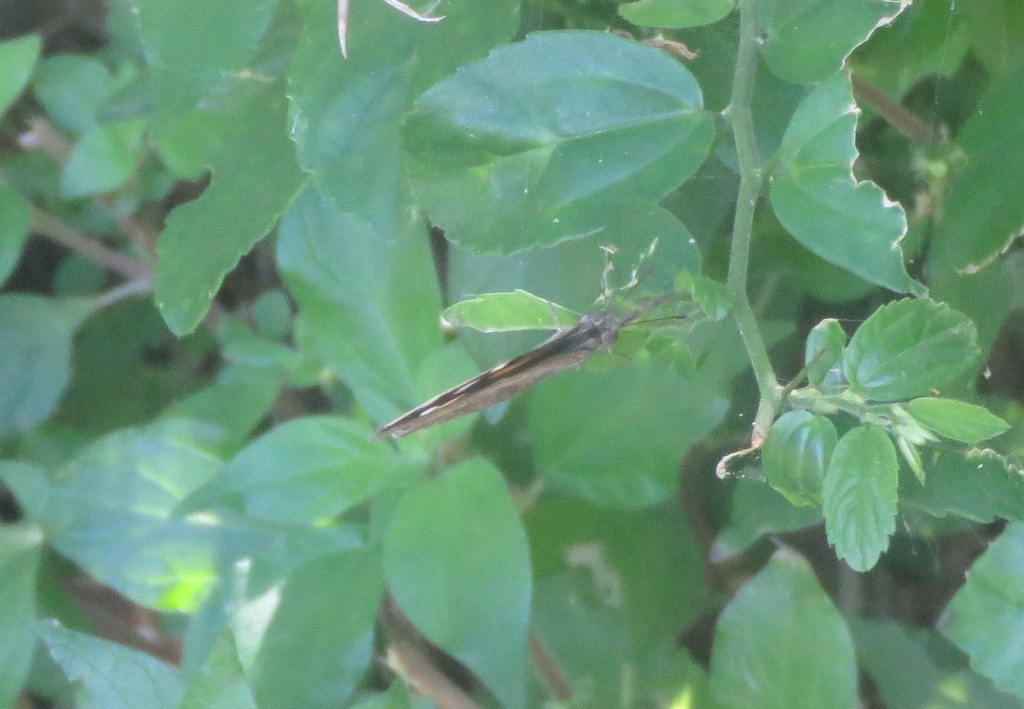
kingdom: Animalia
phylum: Arthropoda
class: Insecta
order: Lepidoptera
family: Nymphalidae
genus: Libytheana
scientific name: Libytheana carinenta
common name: American snout
